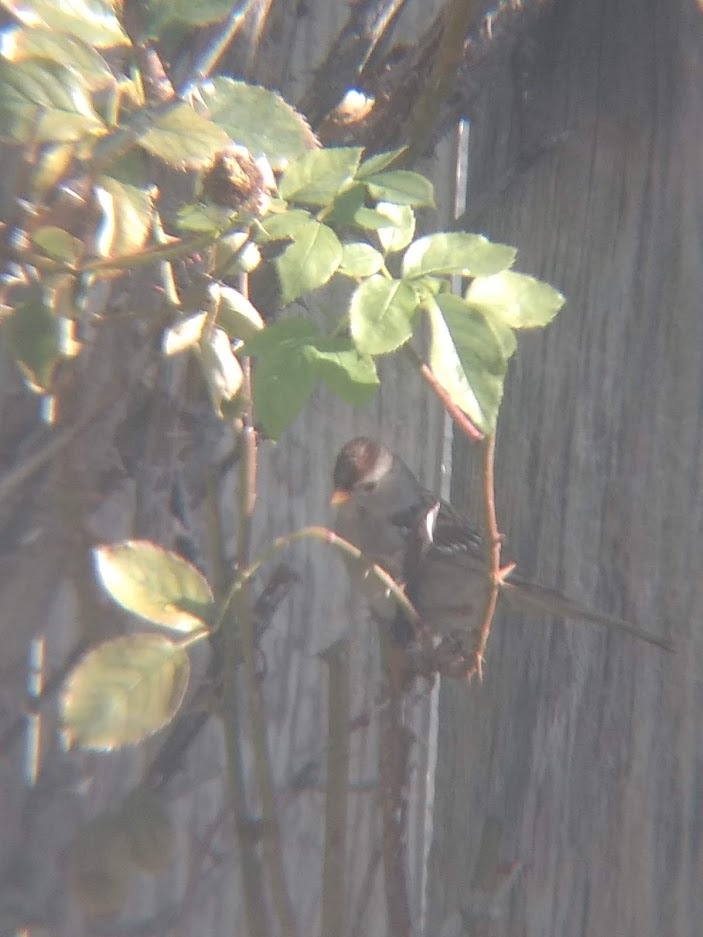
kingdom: Animalia
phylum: Chordata
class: Aves
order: Passeriformes
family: Passerellidae
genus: Zonotrichia
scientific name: Zonotrichia leucophrys
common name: White-crowned sparrow
